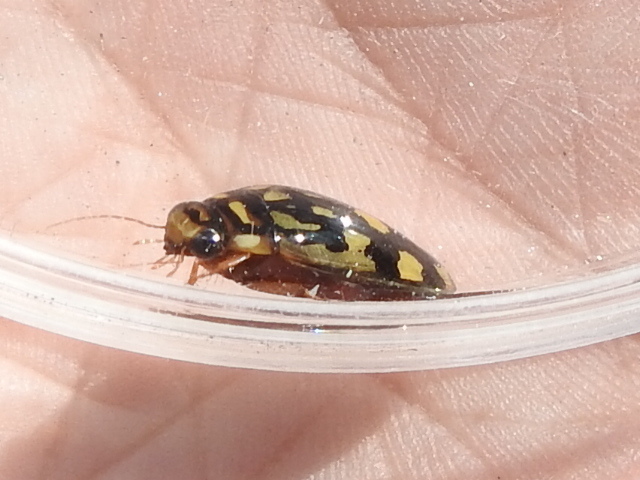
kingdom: Animalia
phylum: Arthropoda
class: Insecta
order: Coleoptera
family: Dytiscidae
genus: Thermonectus
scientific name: Thermonectus marmoratus
